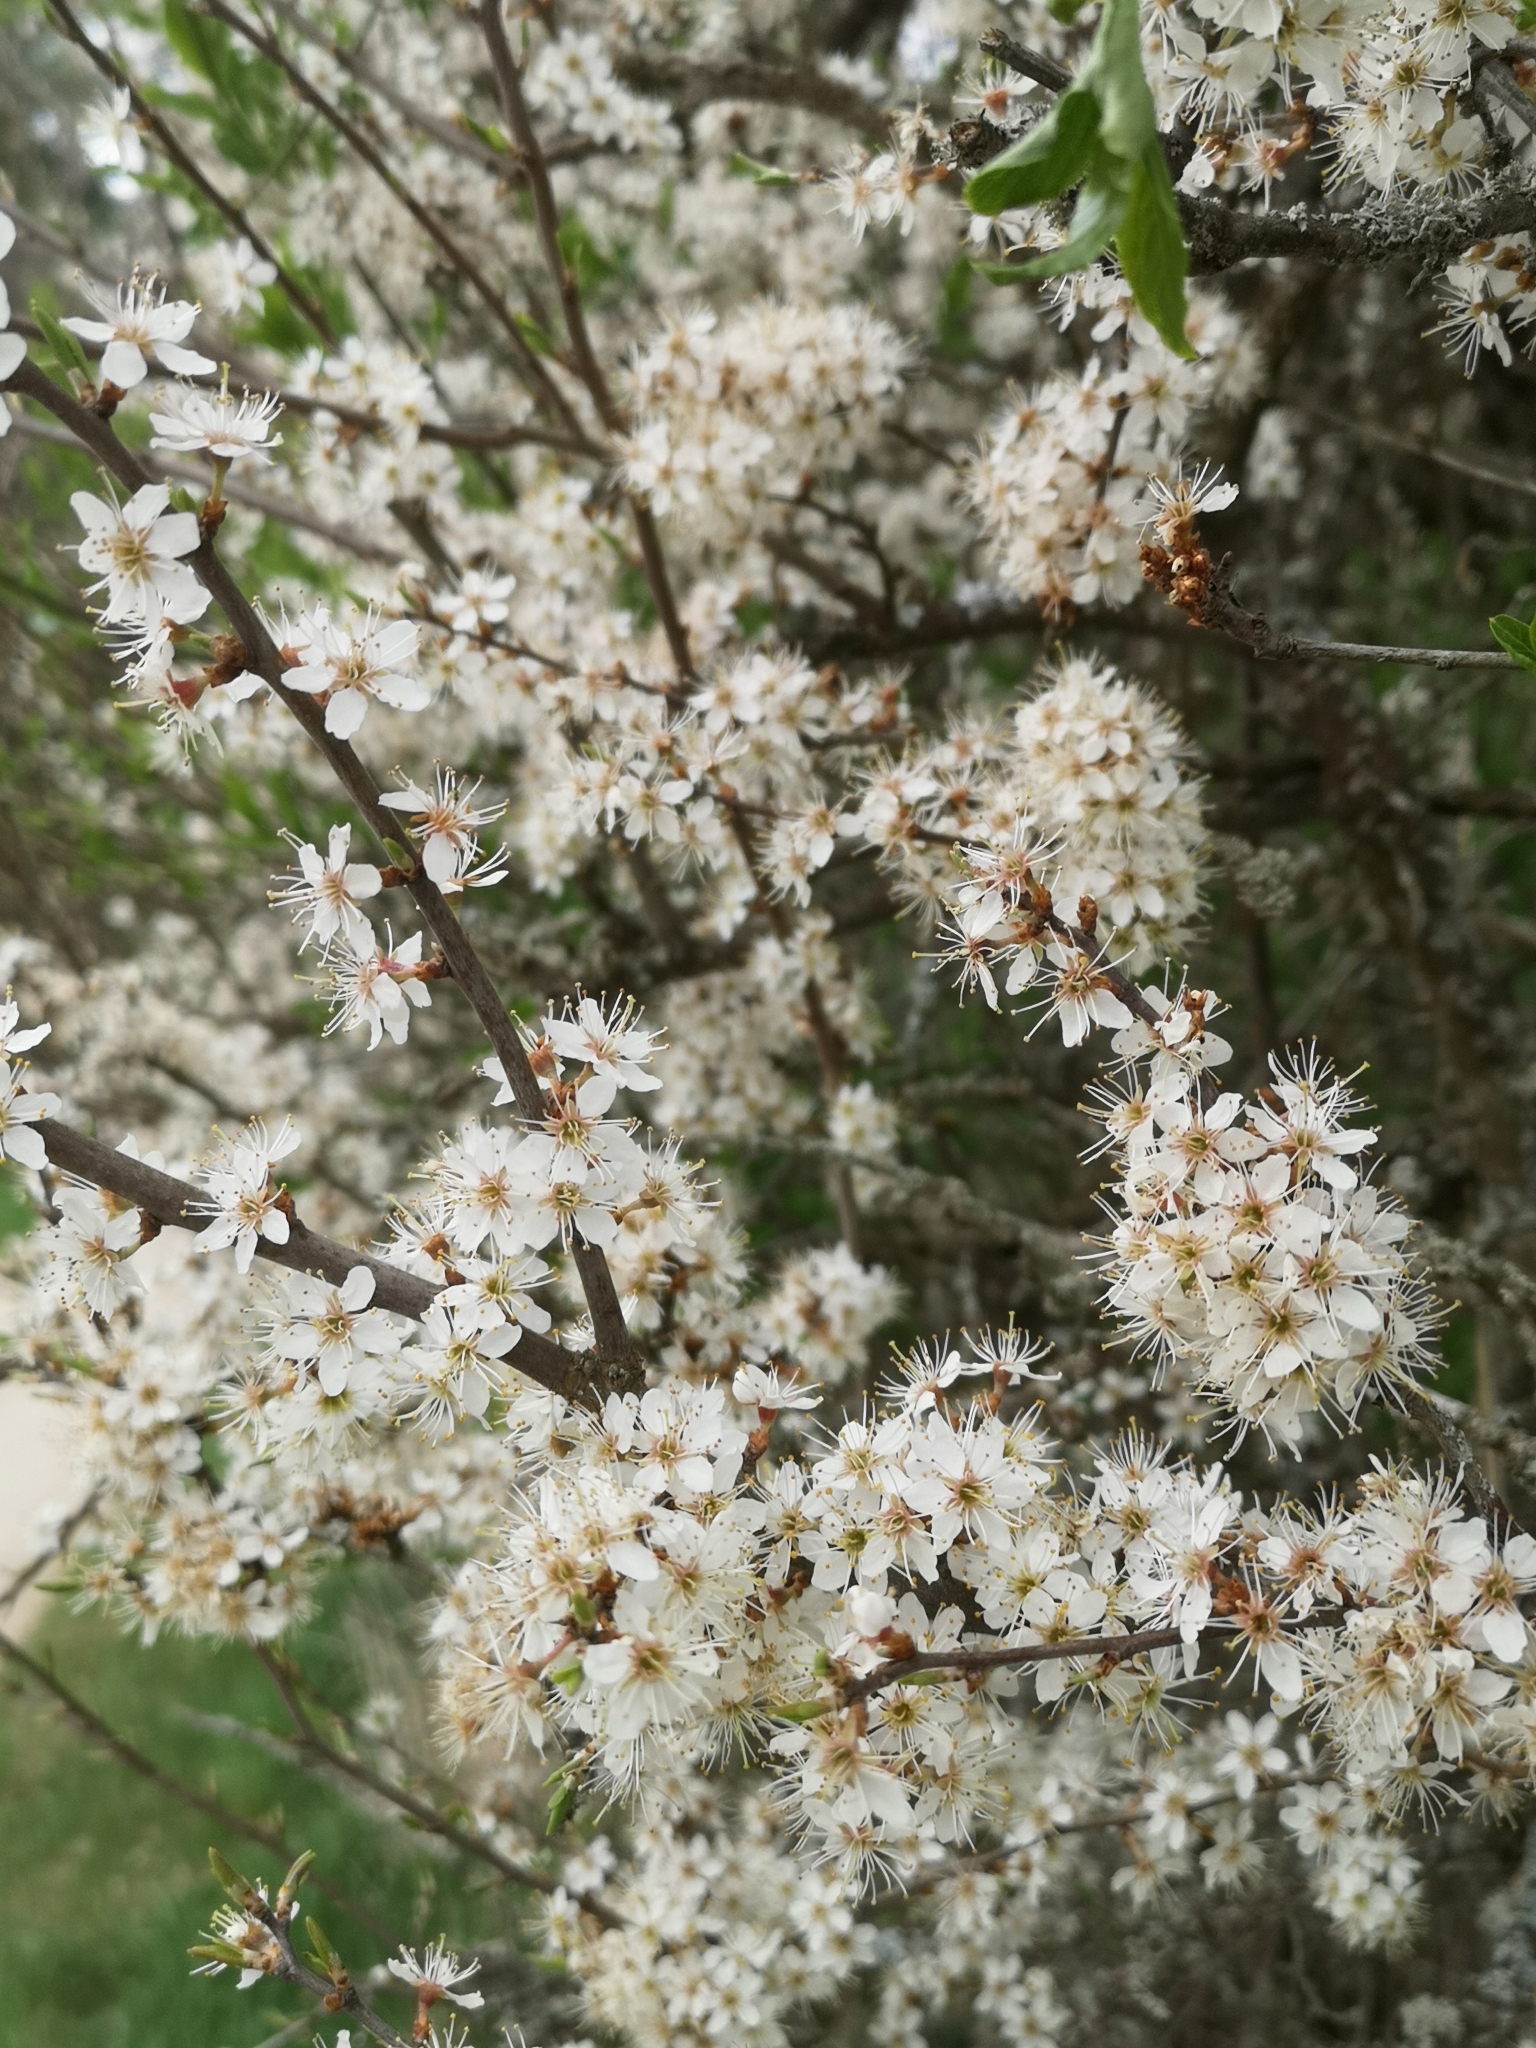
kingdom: Plantae
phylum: Tracheophyta
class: Magnoliopsida
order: Rosales
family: Rosaceae
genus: Prunus
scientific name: Prunus spinosa
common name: Blackthorn
